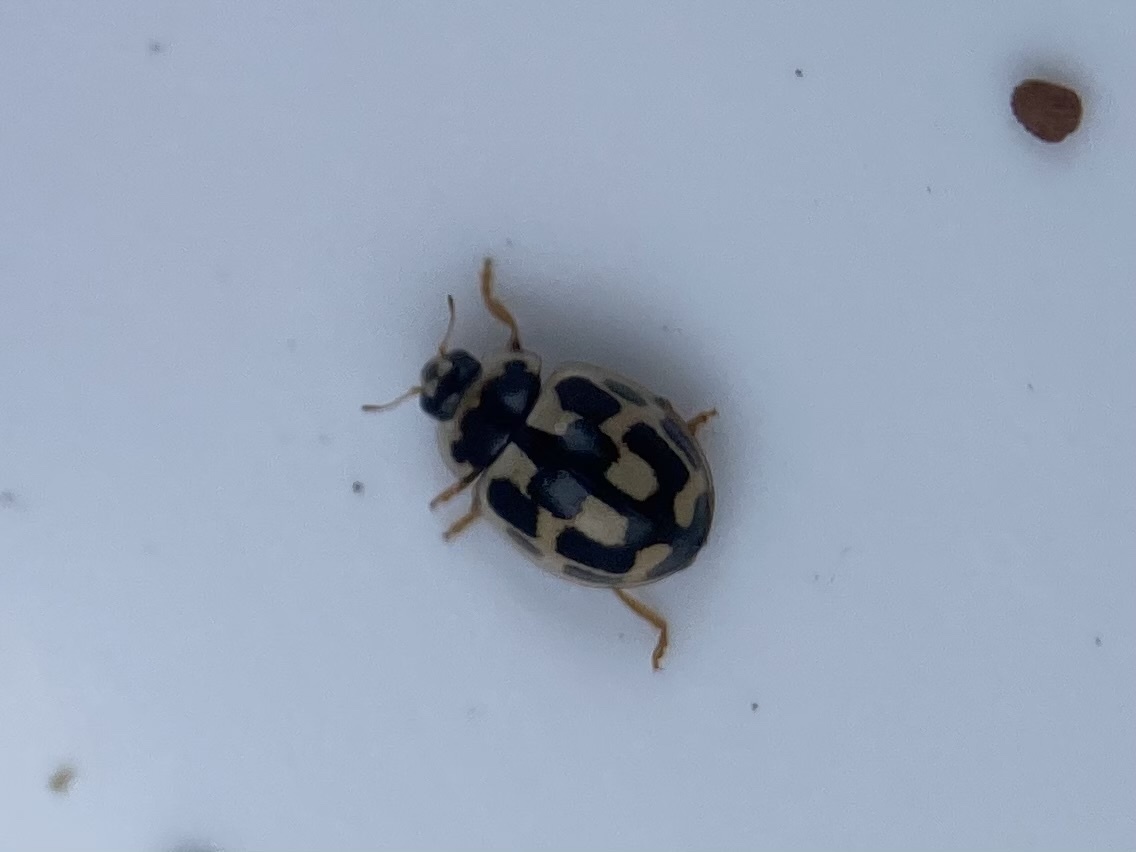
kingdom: Animalia
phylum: Arthropoda
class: Insecta
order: Coleoptera
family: Coccinellidae
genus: Propylaea
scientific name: Propylaea quatuordecimpunctata
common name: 14-spotted ladybird beetle
